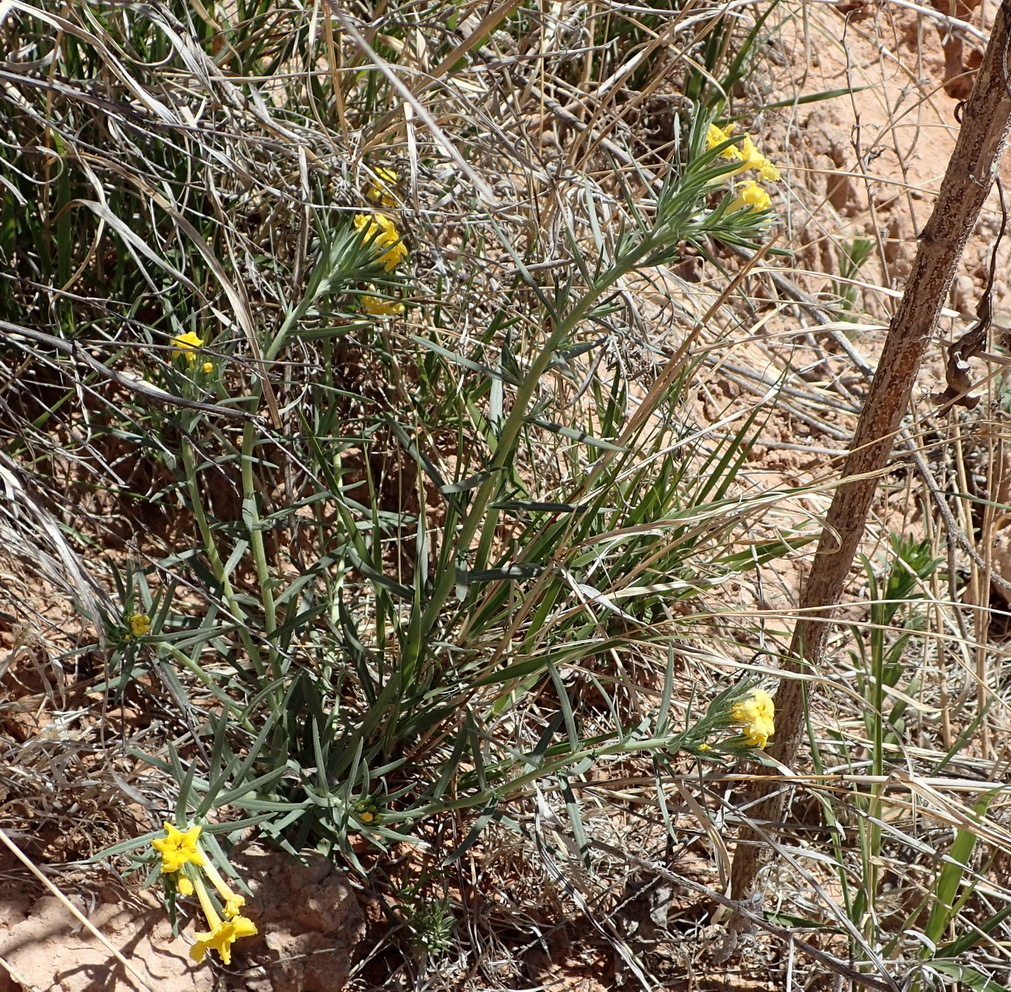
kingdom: Plantae
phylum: Tracheophyta
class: Magnoliopsida
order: Boraginales
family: Boraginaceae
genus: Lithospermum
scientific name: Lithospermum incisum
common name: Fringed gromwell
